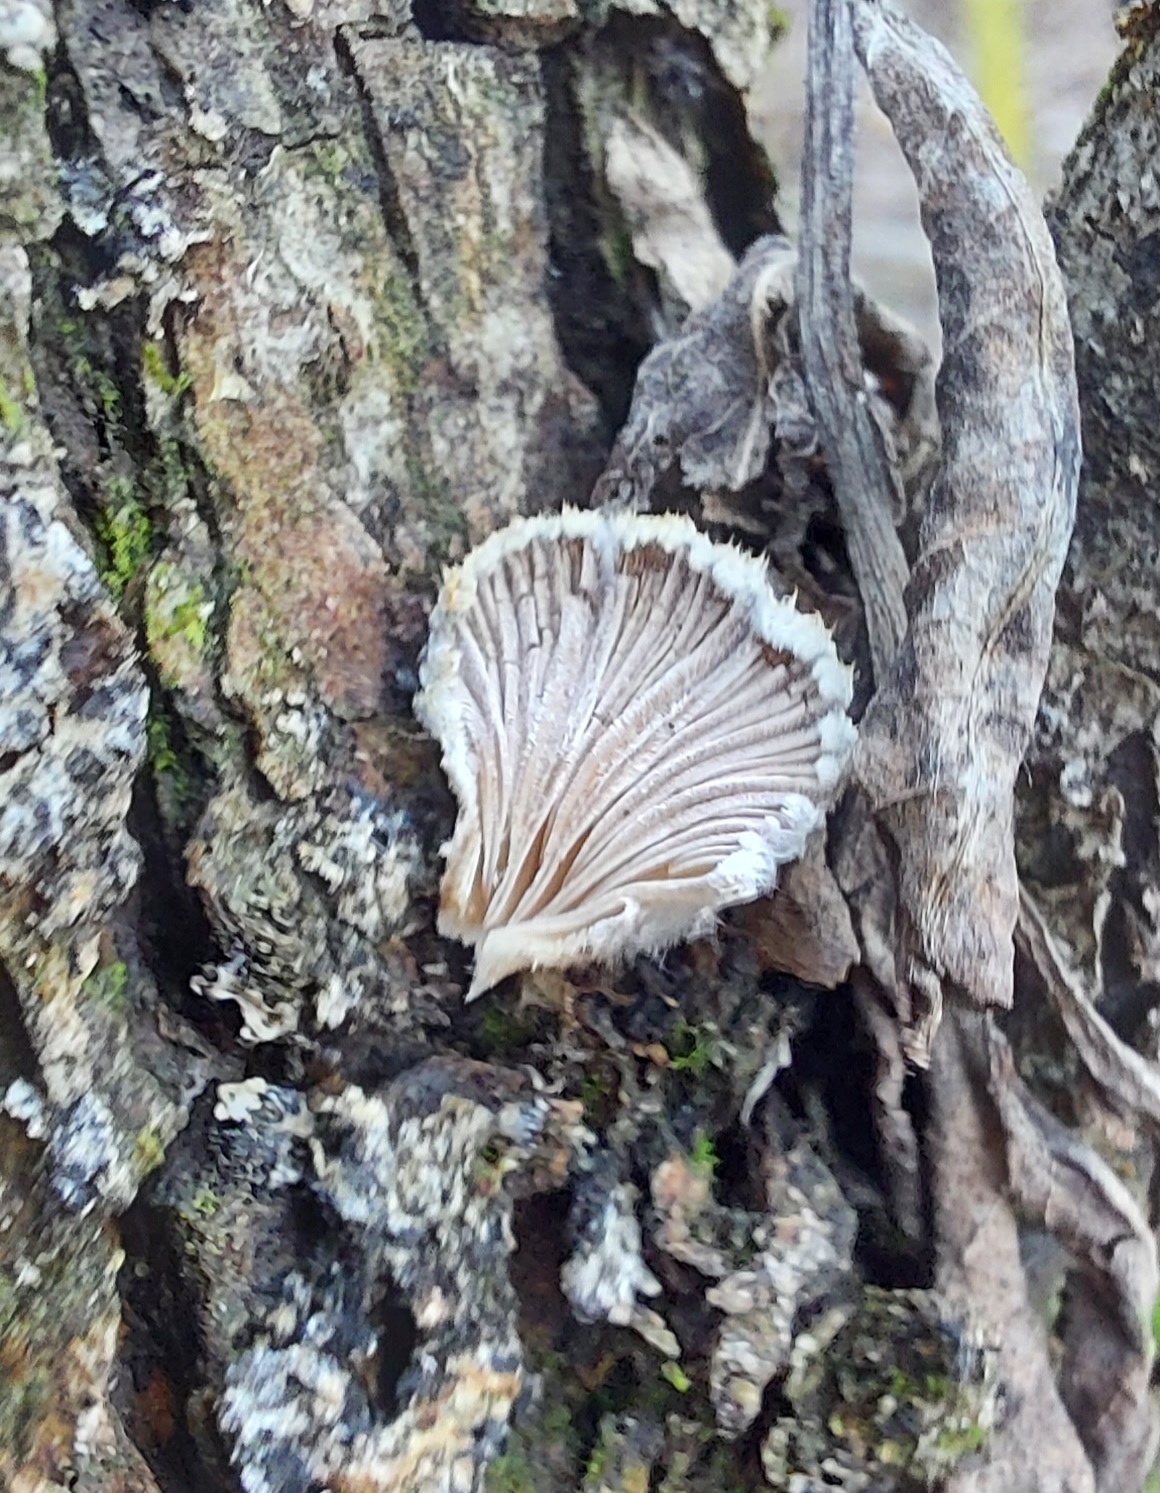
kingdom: Fungi
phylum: Basidiomycota
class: Agaricomycetes
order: Agaricales
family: Schizophyllaceae
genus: Schizophyllum
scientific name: Schizophyllum commune
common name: Common porecrust
